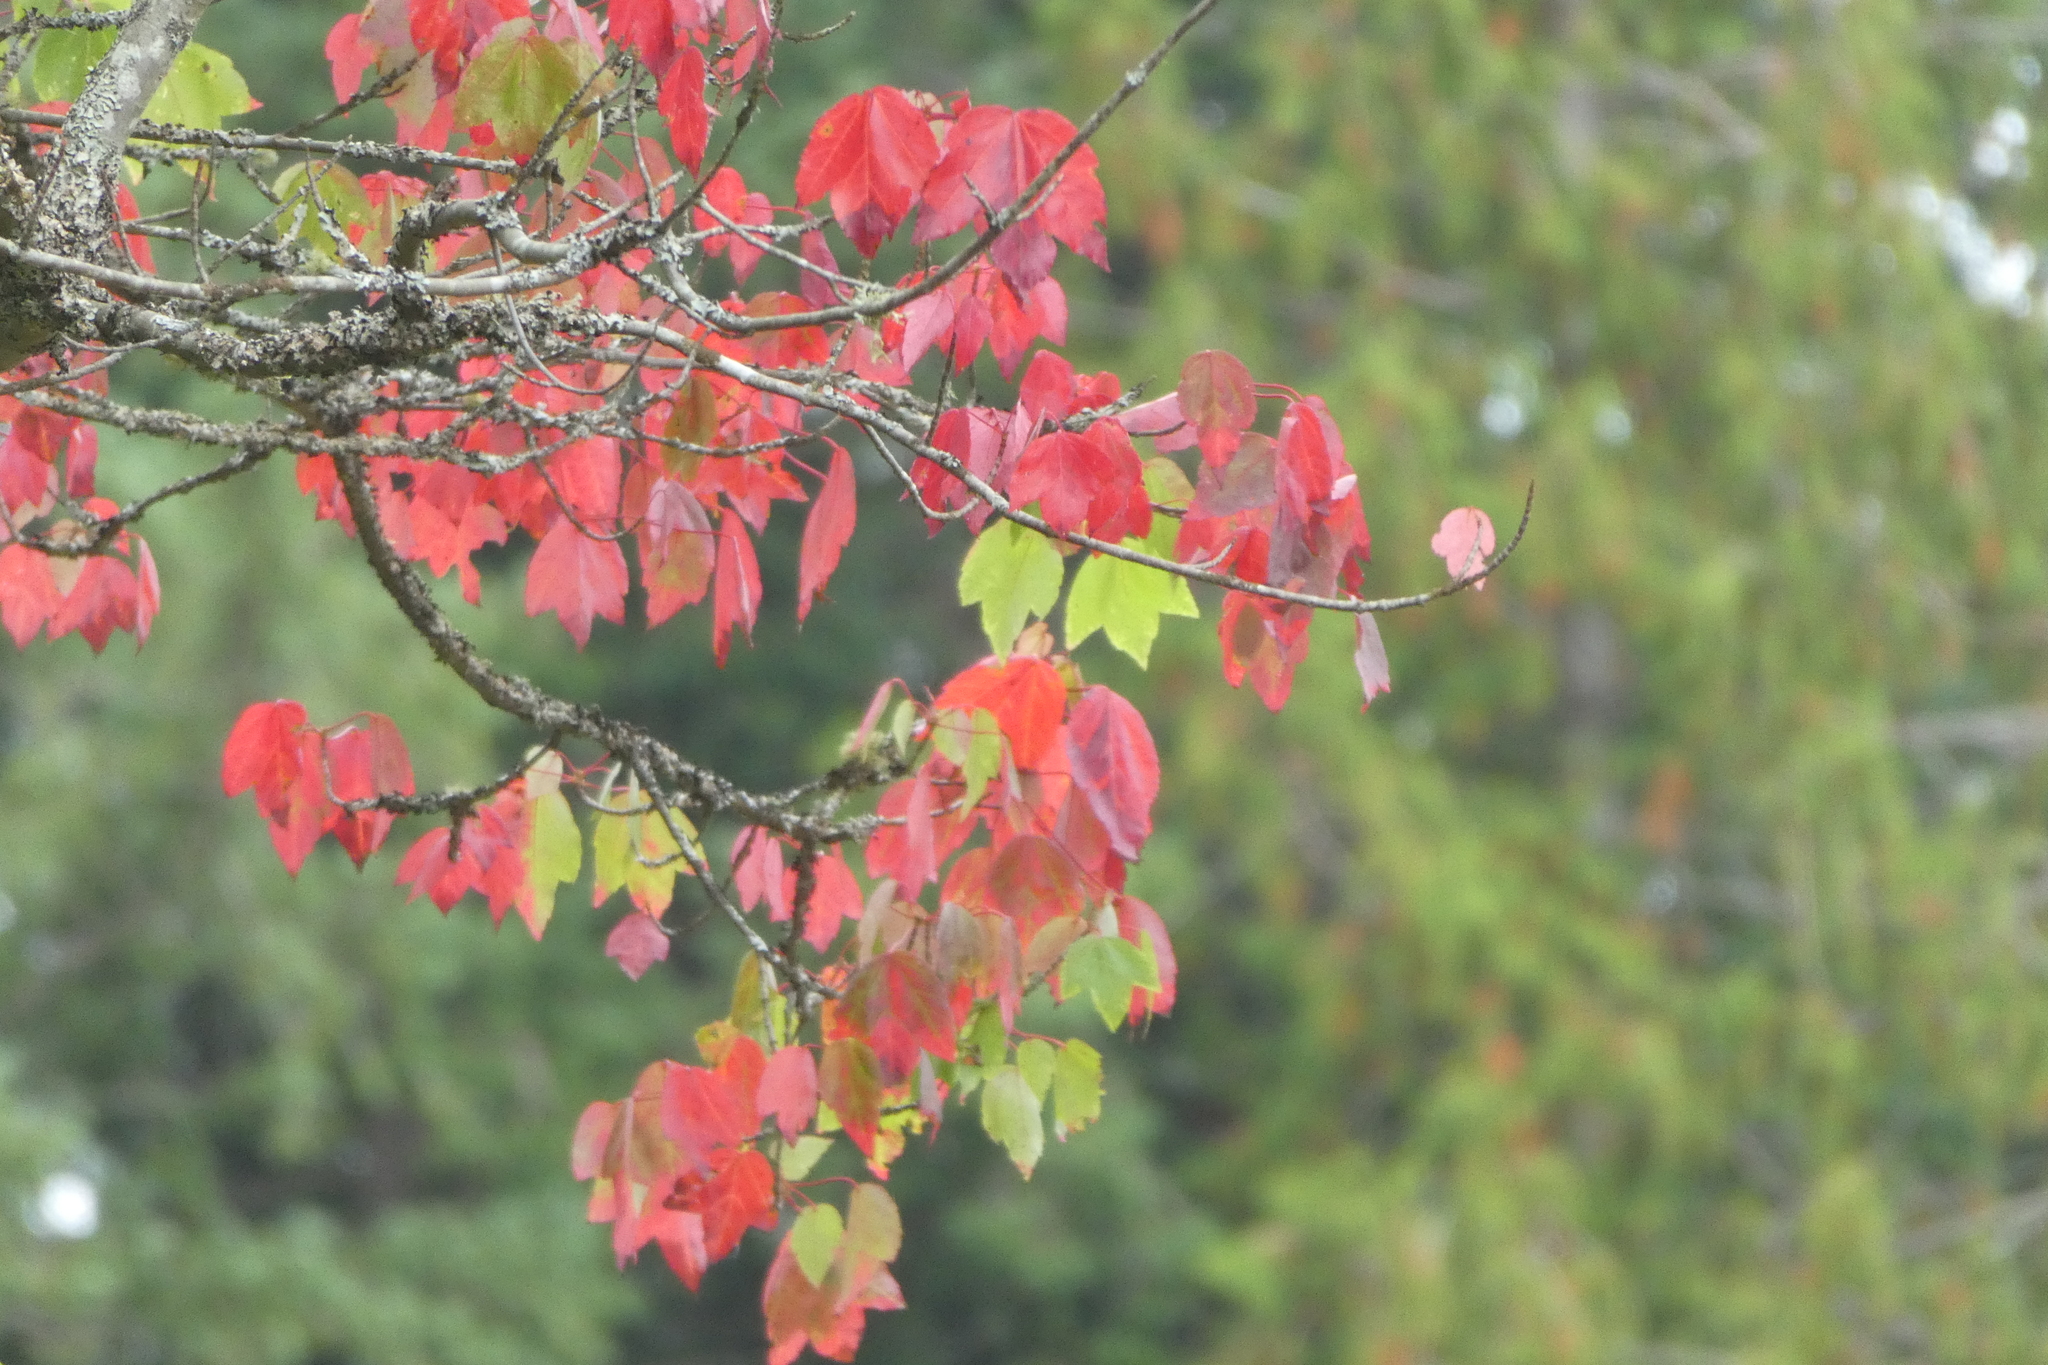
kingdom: Plantae
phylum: Tracheophyta
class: Magnoliopsida
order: Sapindales
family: Sapindaceae
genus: Acer
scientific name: Acer rubrum
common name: Red maple
